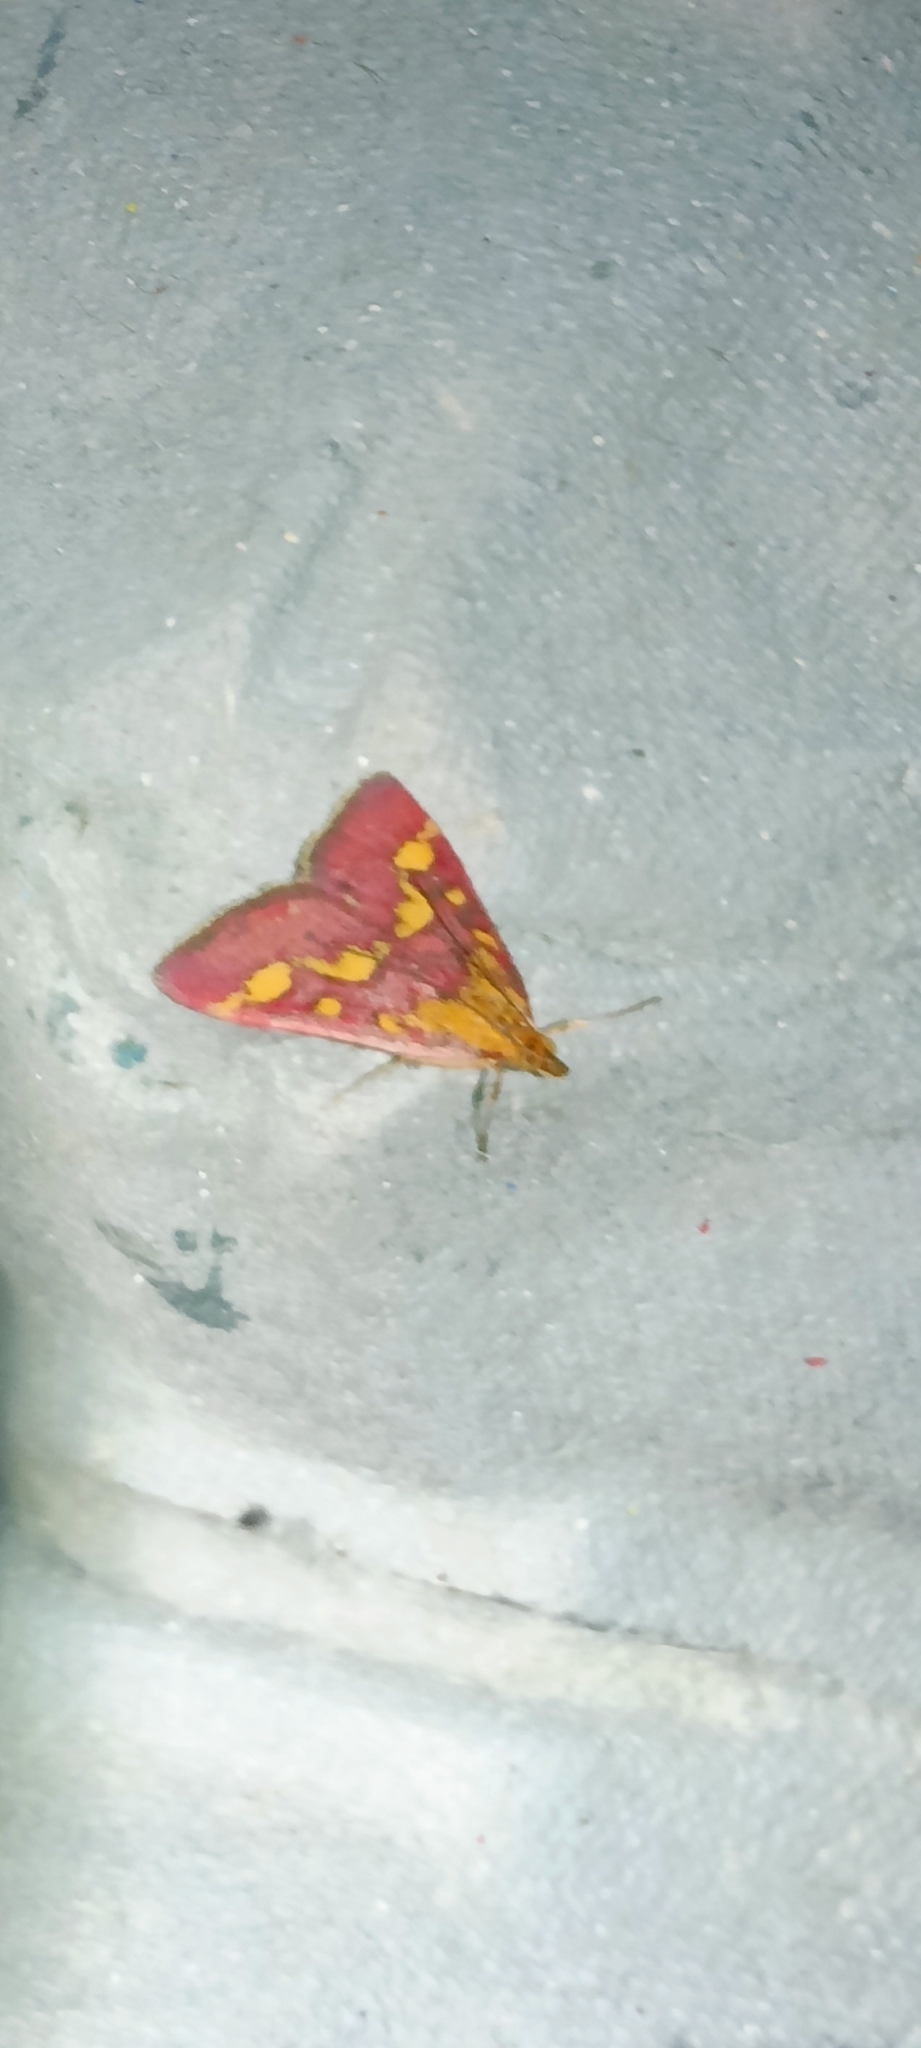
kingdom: Animalia
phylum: Arthropoda
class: Insecta
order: Lepidoptera
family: Crambidae
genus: Pyrausta
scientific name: Pyrausta purpuralis
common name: Common purple & gold
